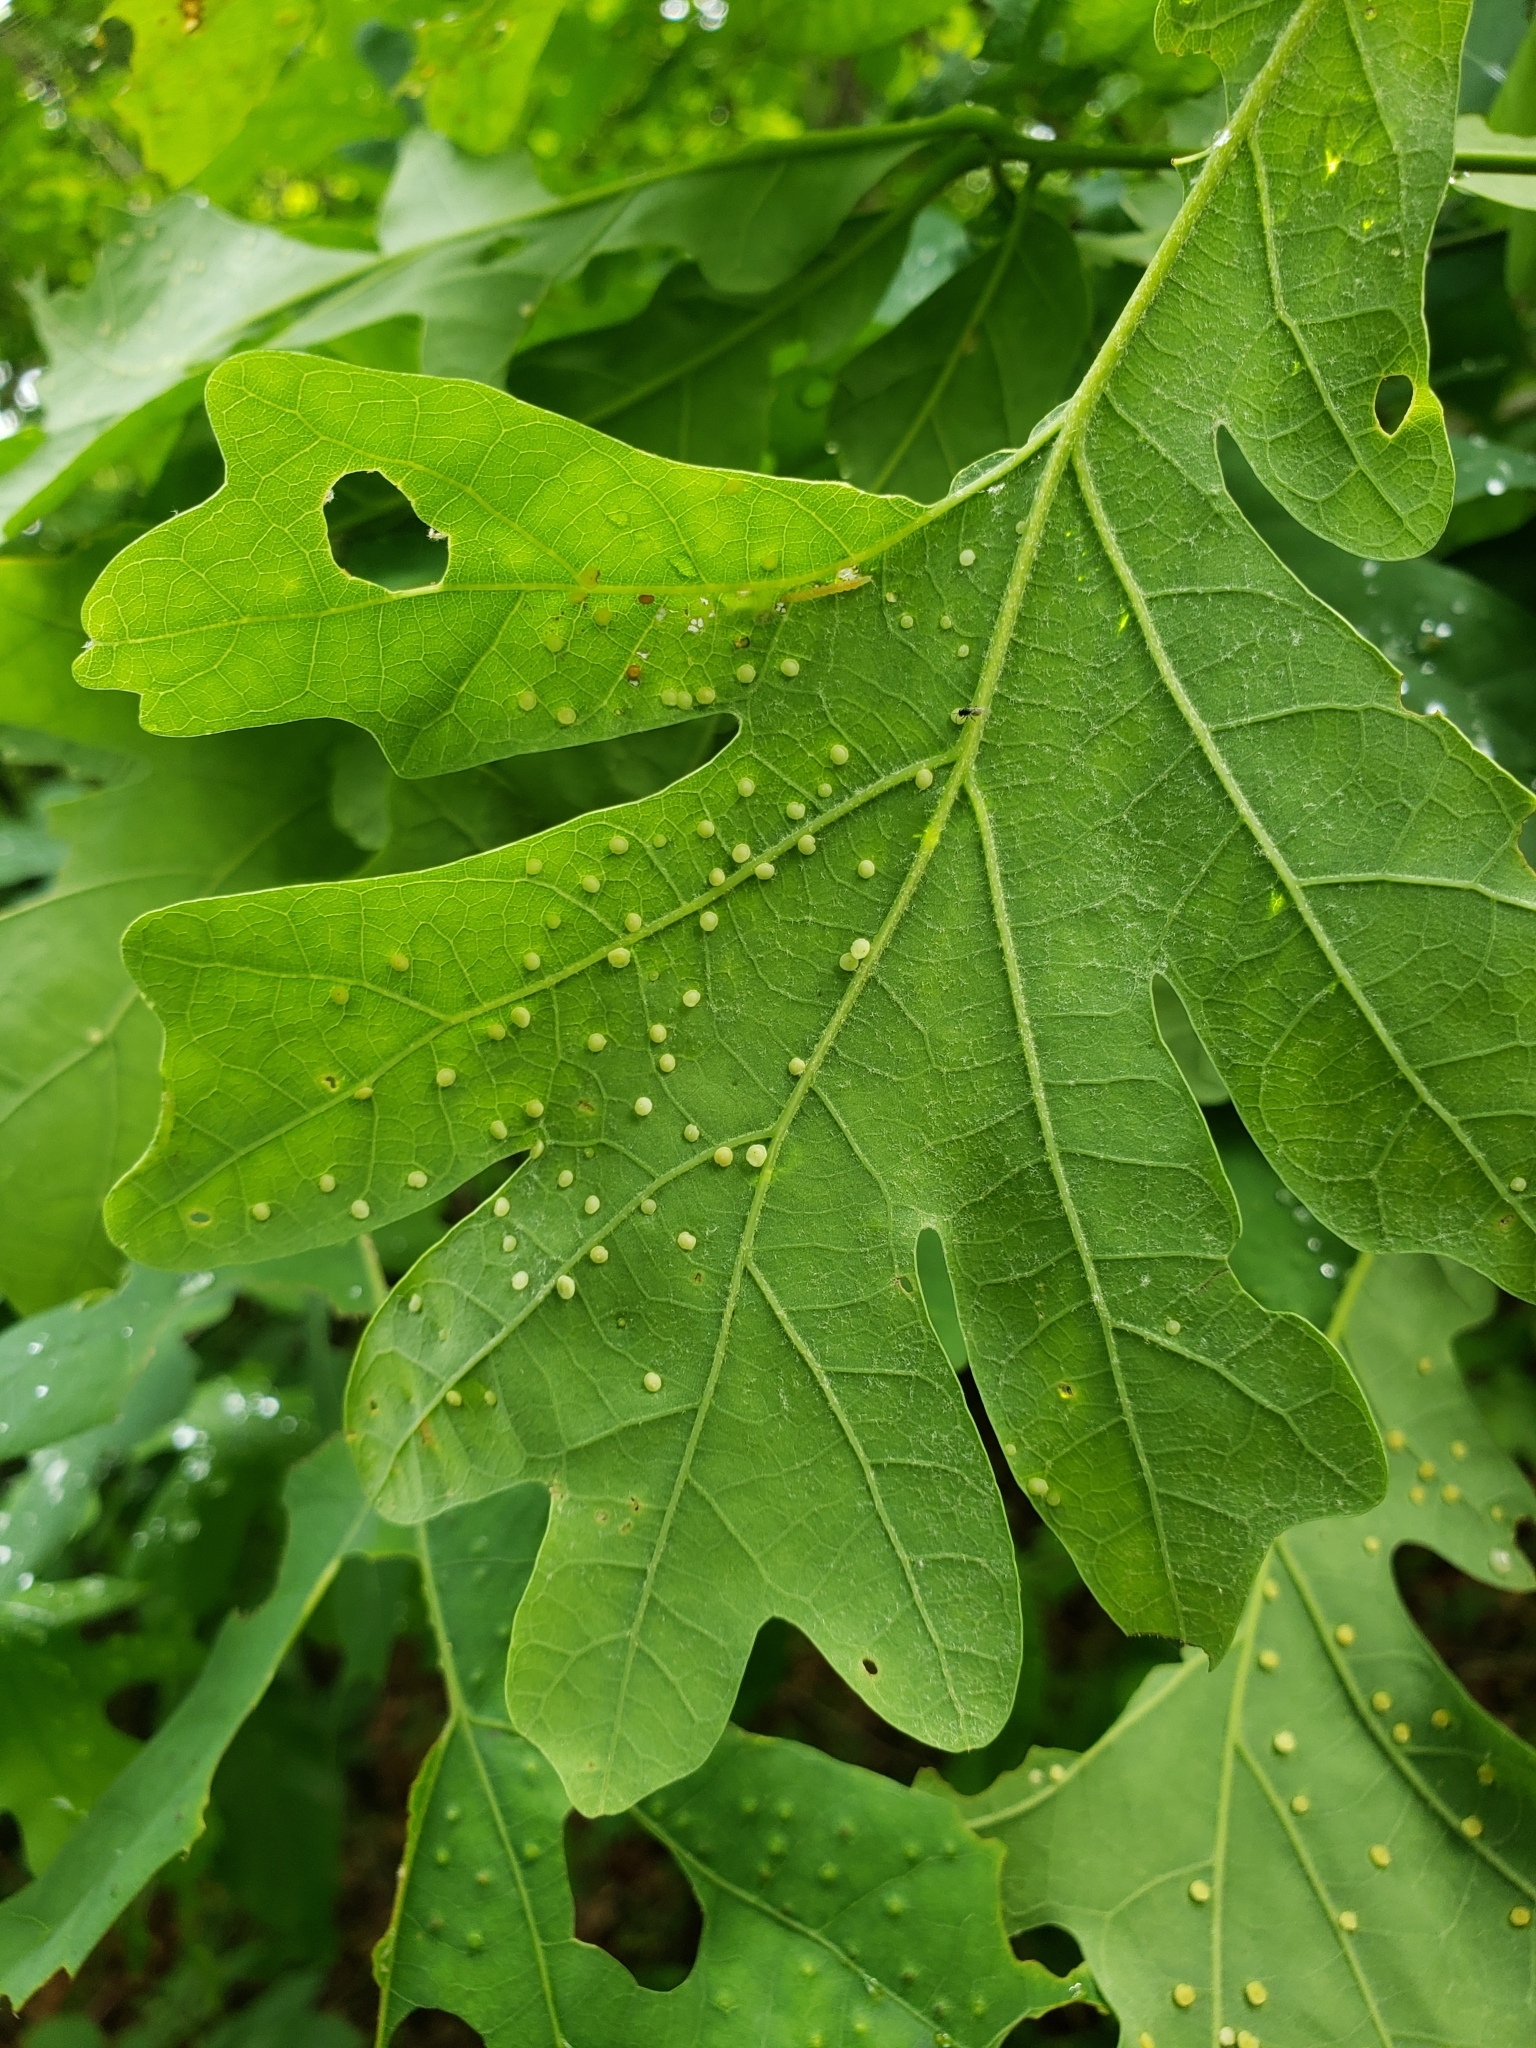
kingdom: Animalia
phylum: Arthropoda
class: Insecta
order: Hymenoptera
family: Cynipidae
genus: Neuroterus
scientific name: Neuroterus
